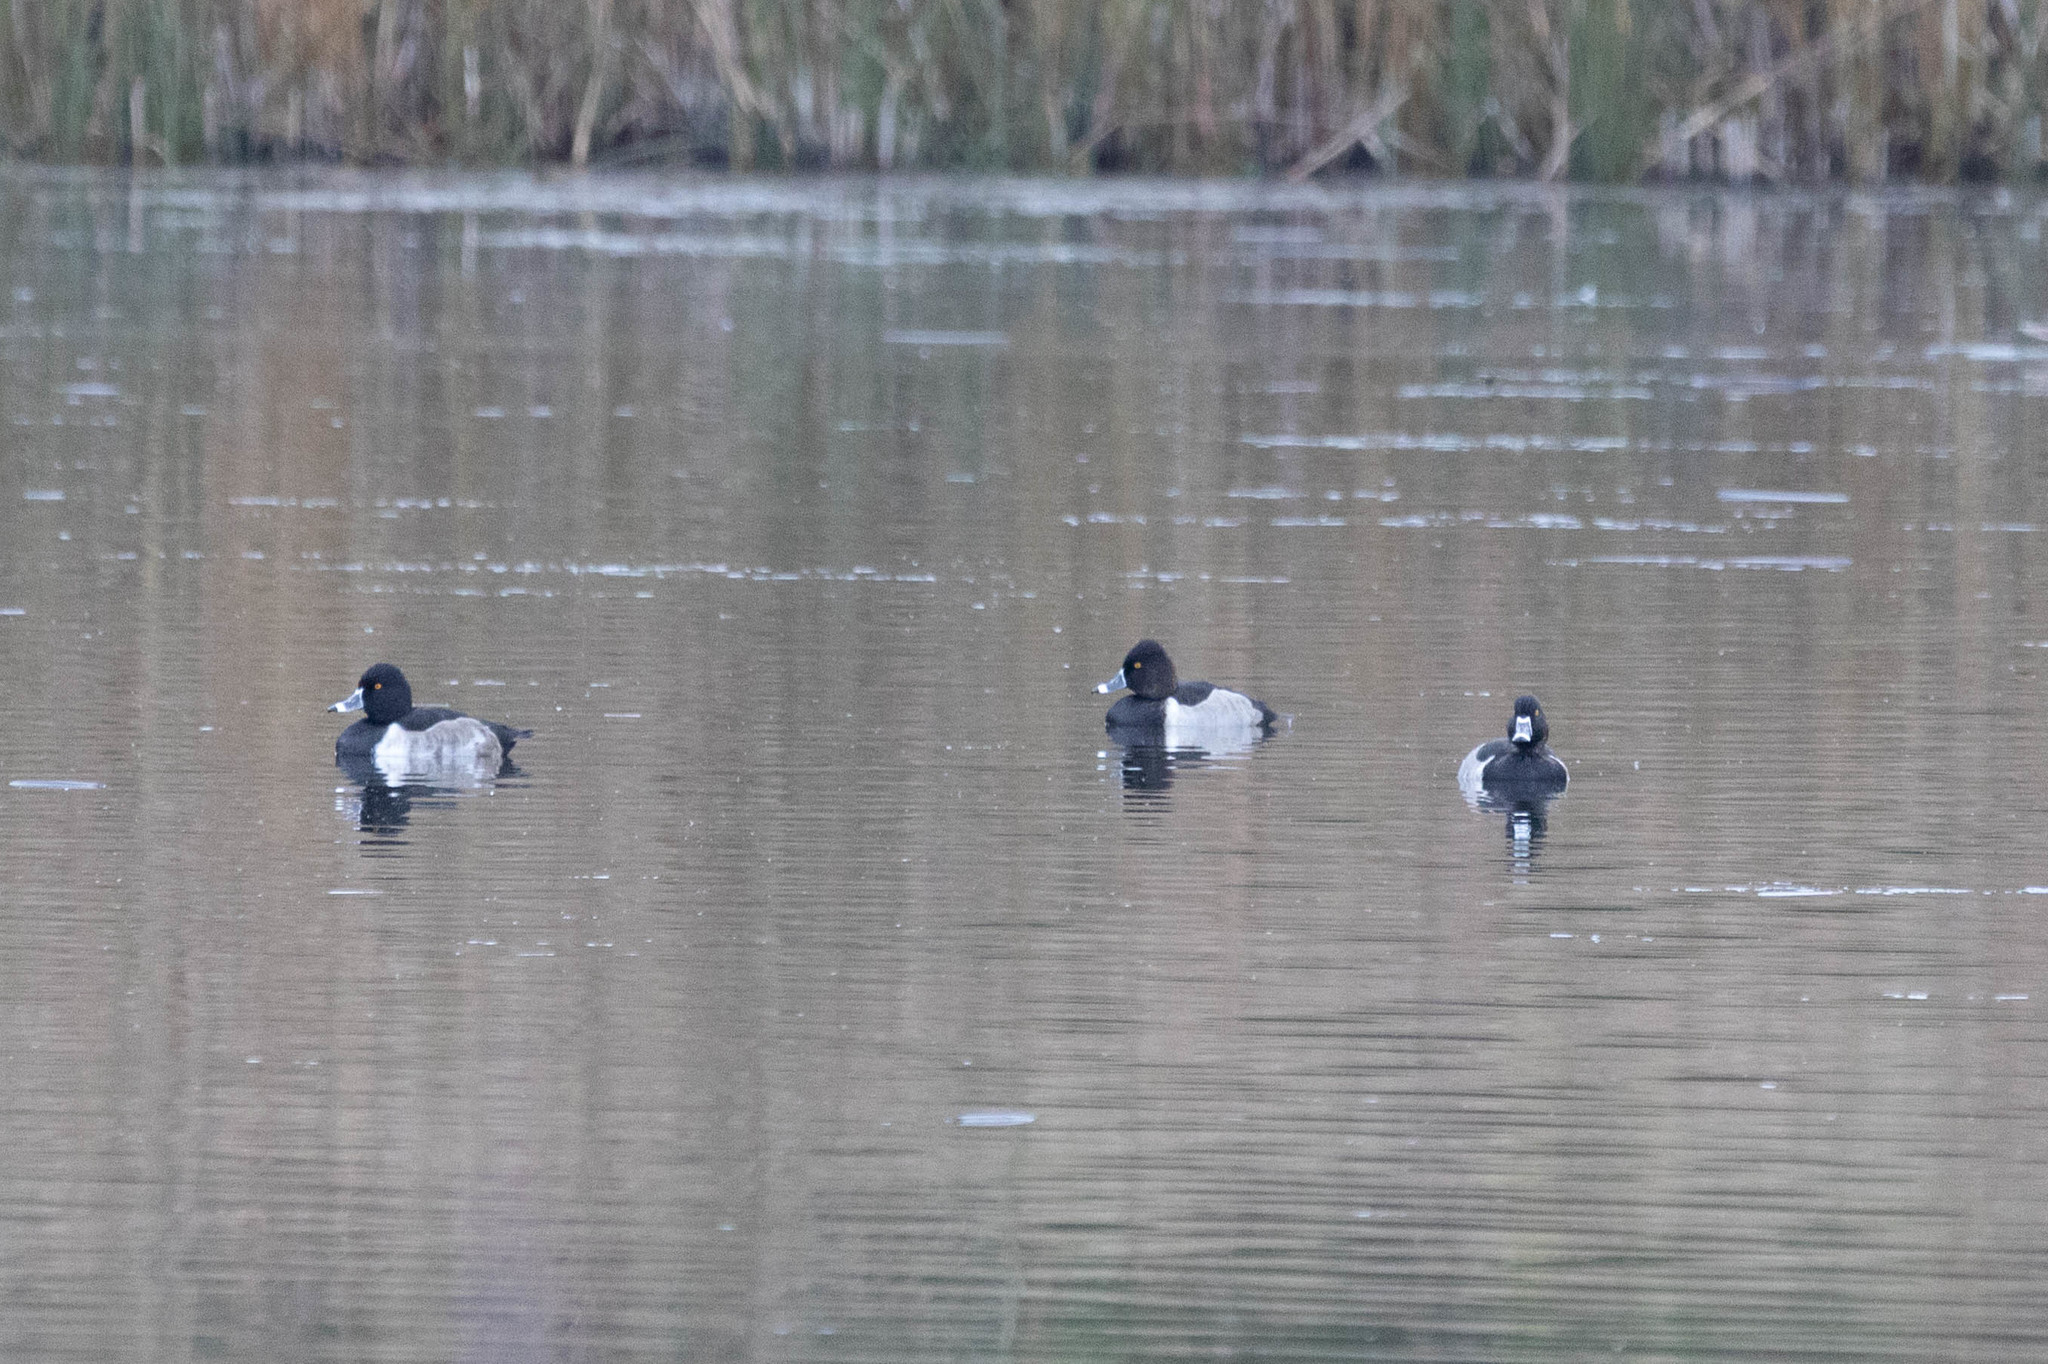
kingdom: Animalia
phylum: Chordata
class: Aves
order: Anseriformes
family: Anatidae
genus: Aythya
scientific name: Aythya collaris
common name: Ring-necked duck
